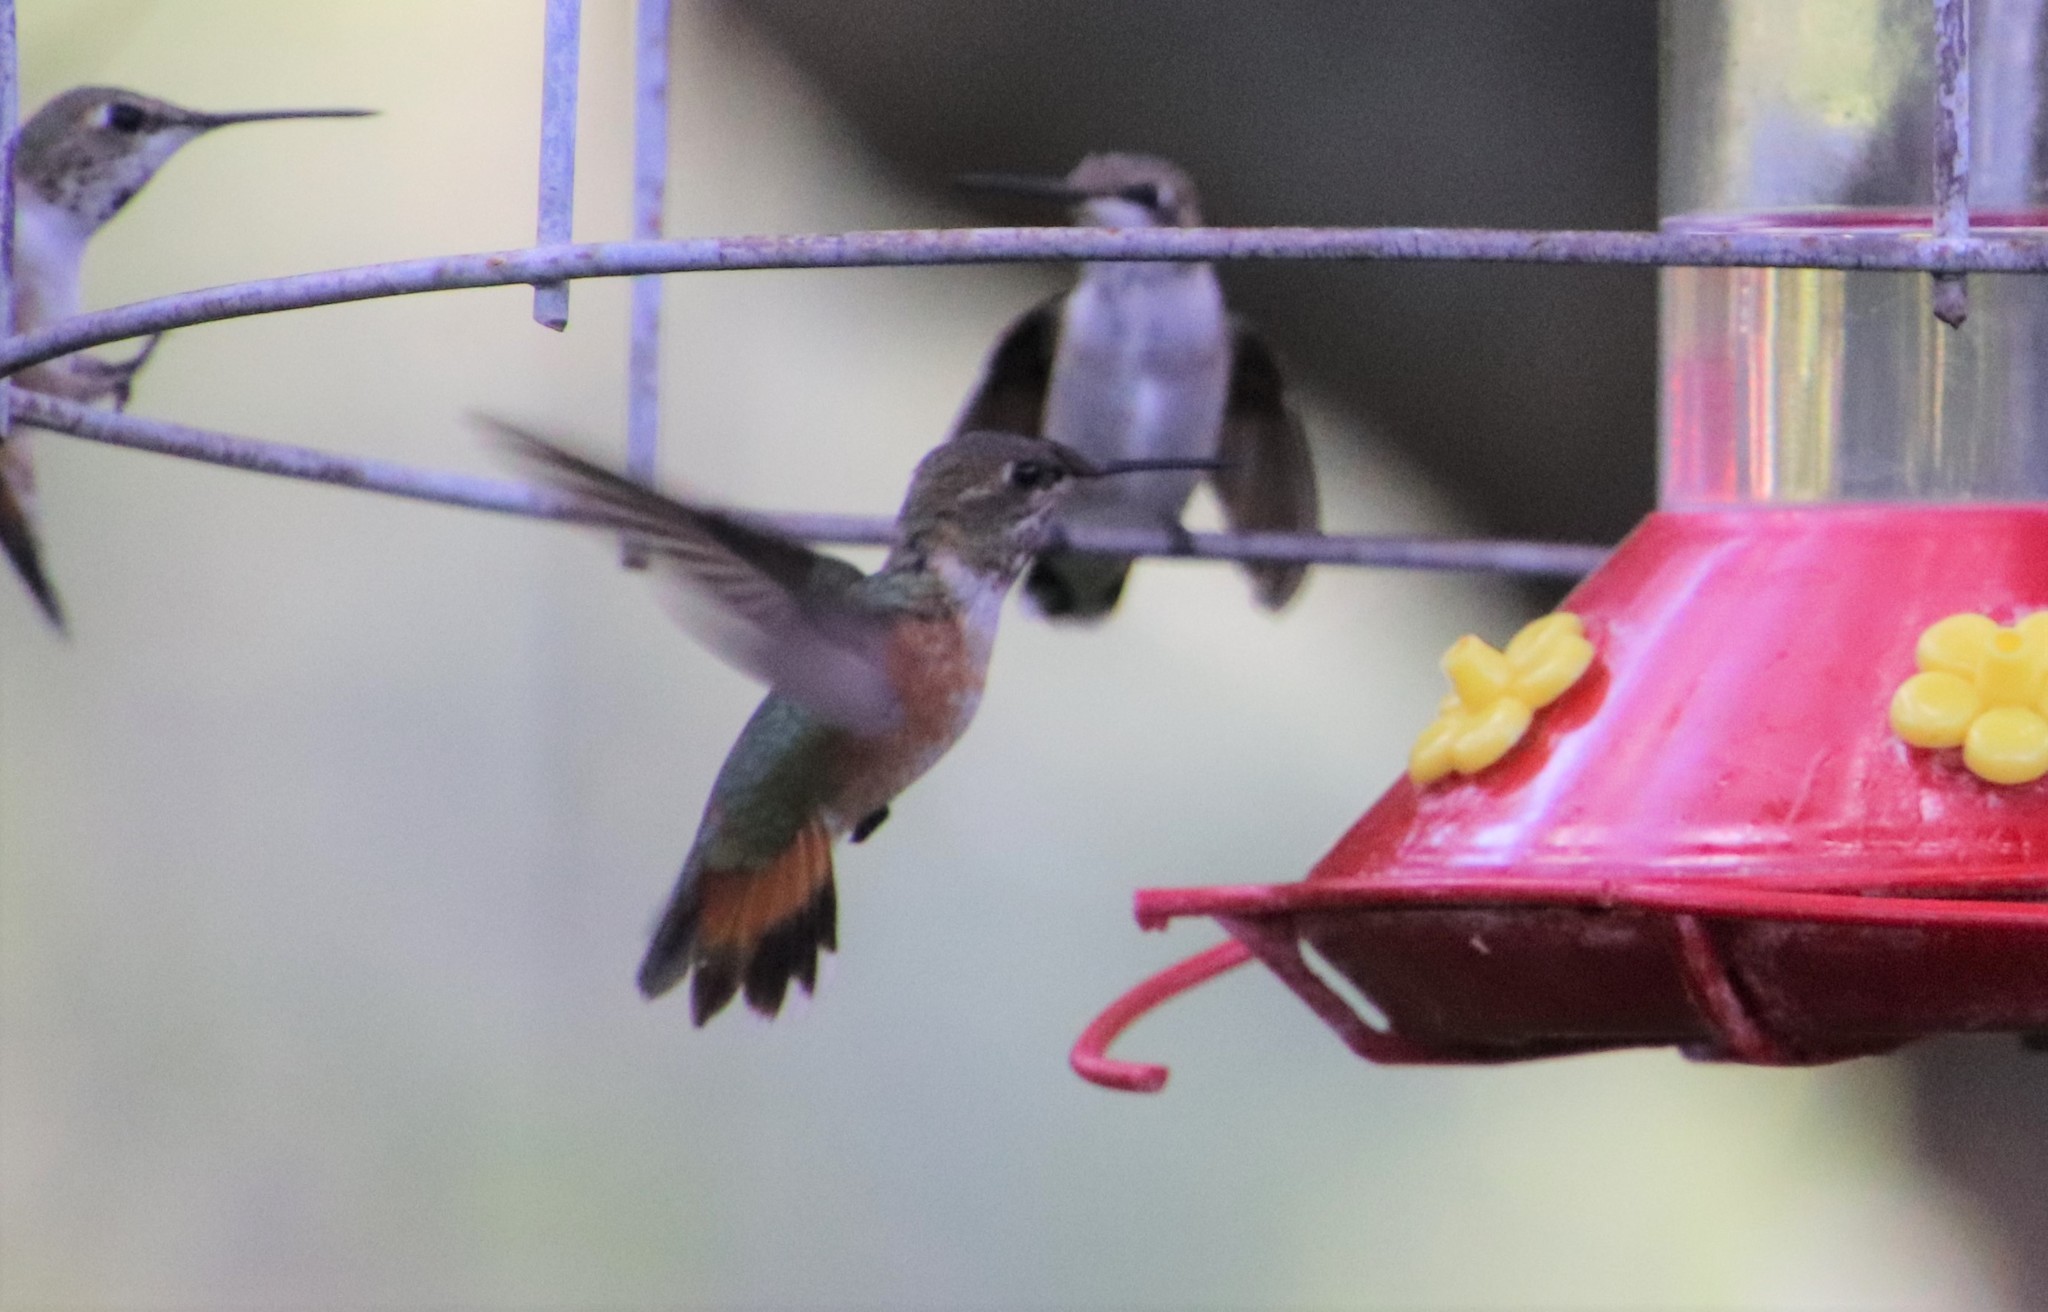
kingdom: Animalia
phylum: Chordata
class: Aves
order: Apodiformes
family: Trochilidae
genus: Selasphorus
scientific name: Selasphorus rufus
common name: Rufous hummingbird
